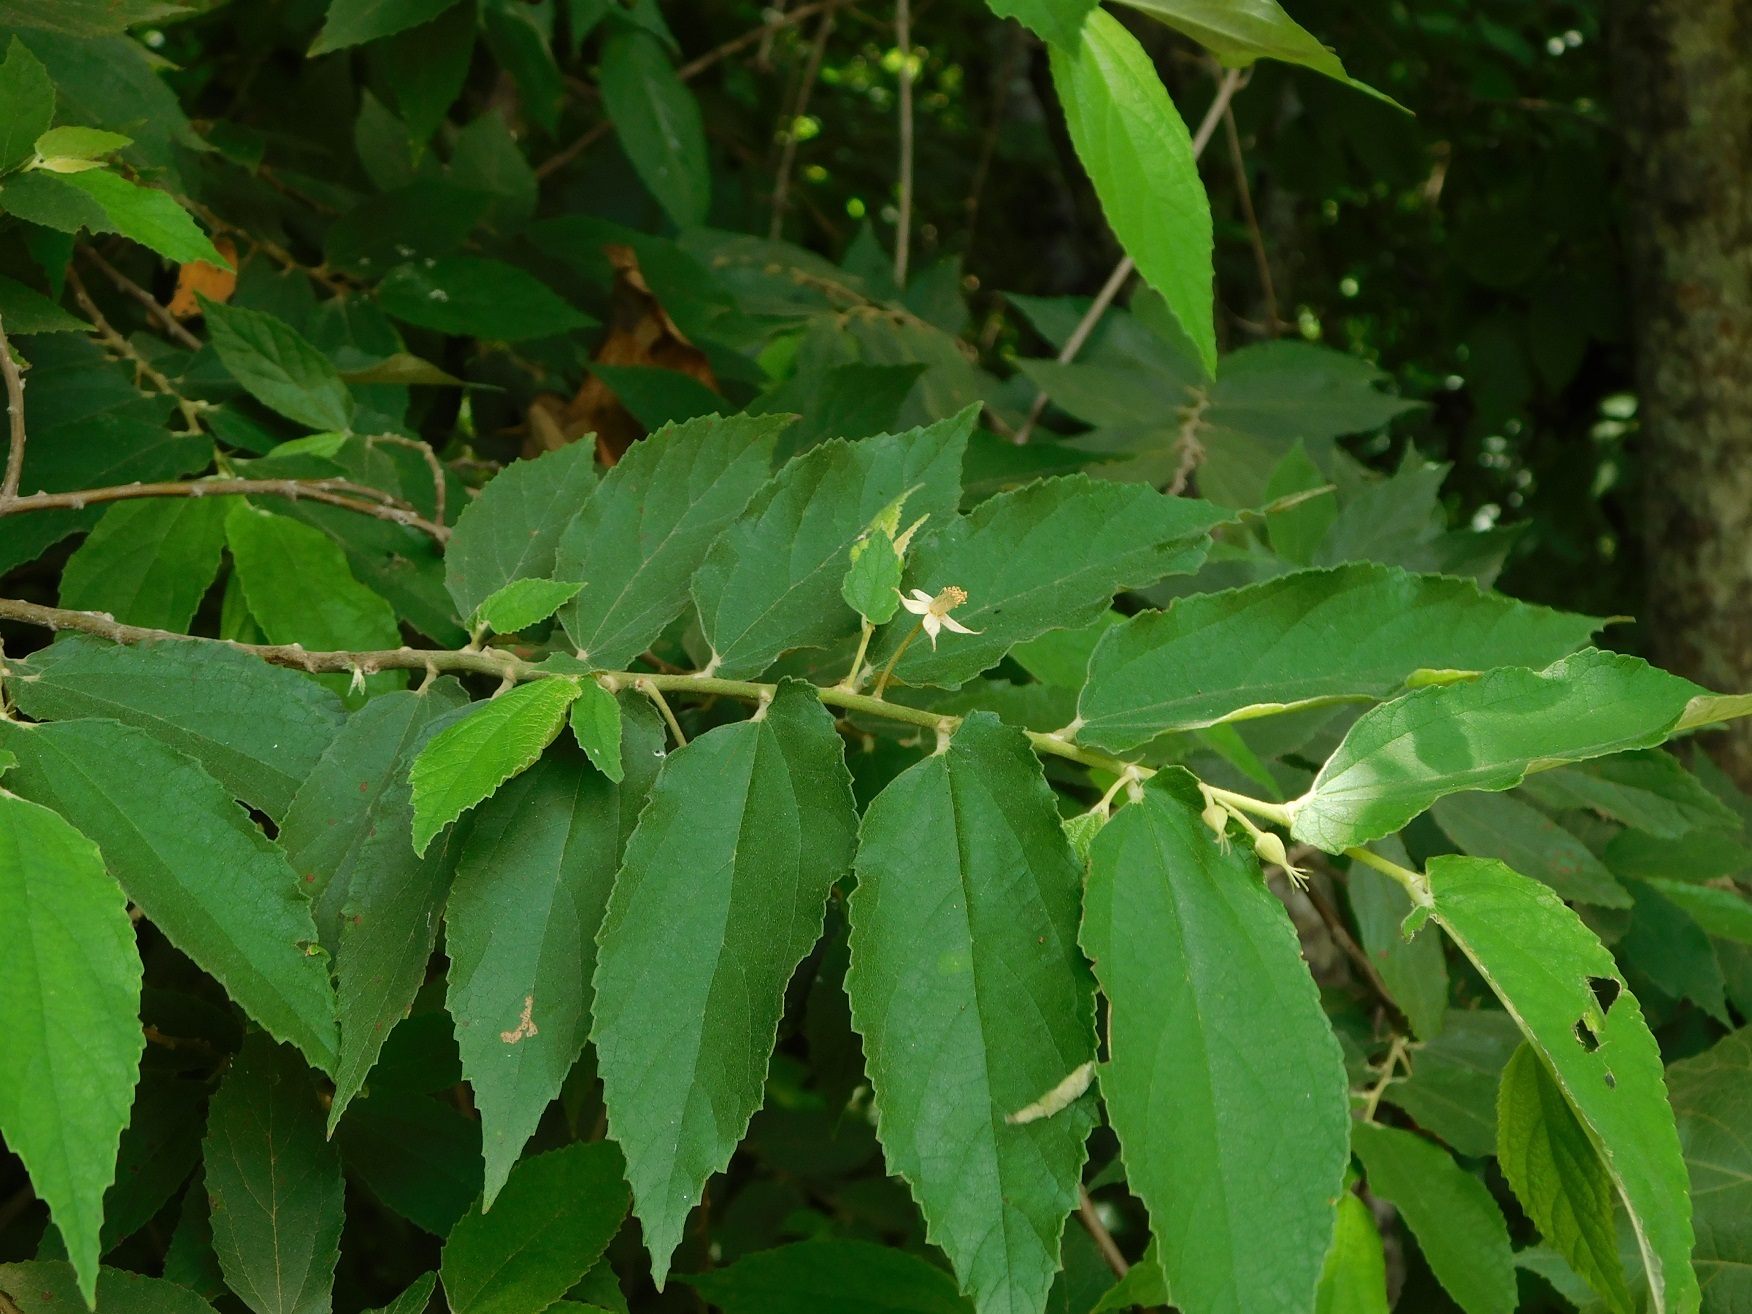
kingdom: Plantae
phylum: Tracheophyta
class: Magnoliopsida
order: Malvales
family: Muntingiaceae
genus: Muntingia
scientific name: Muntingia calabura
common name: Strawberrytree
